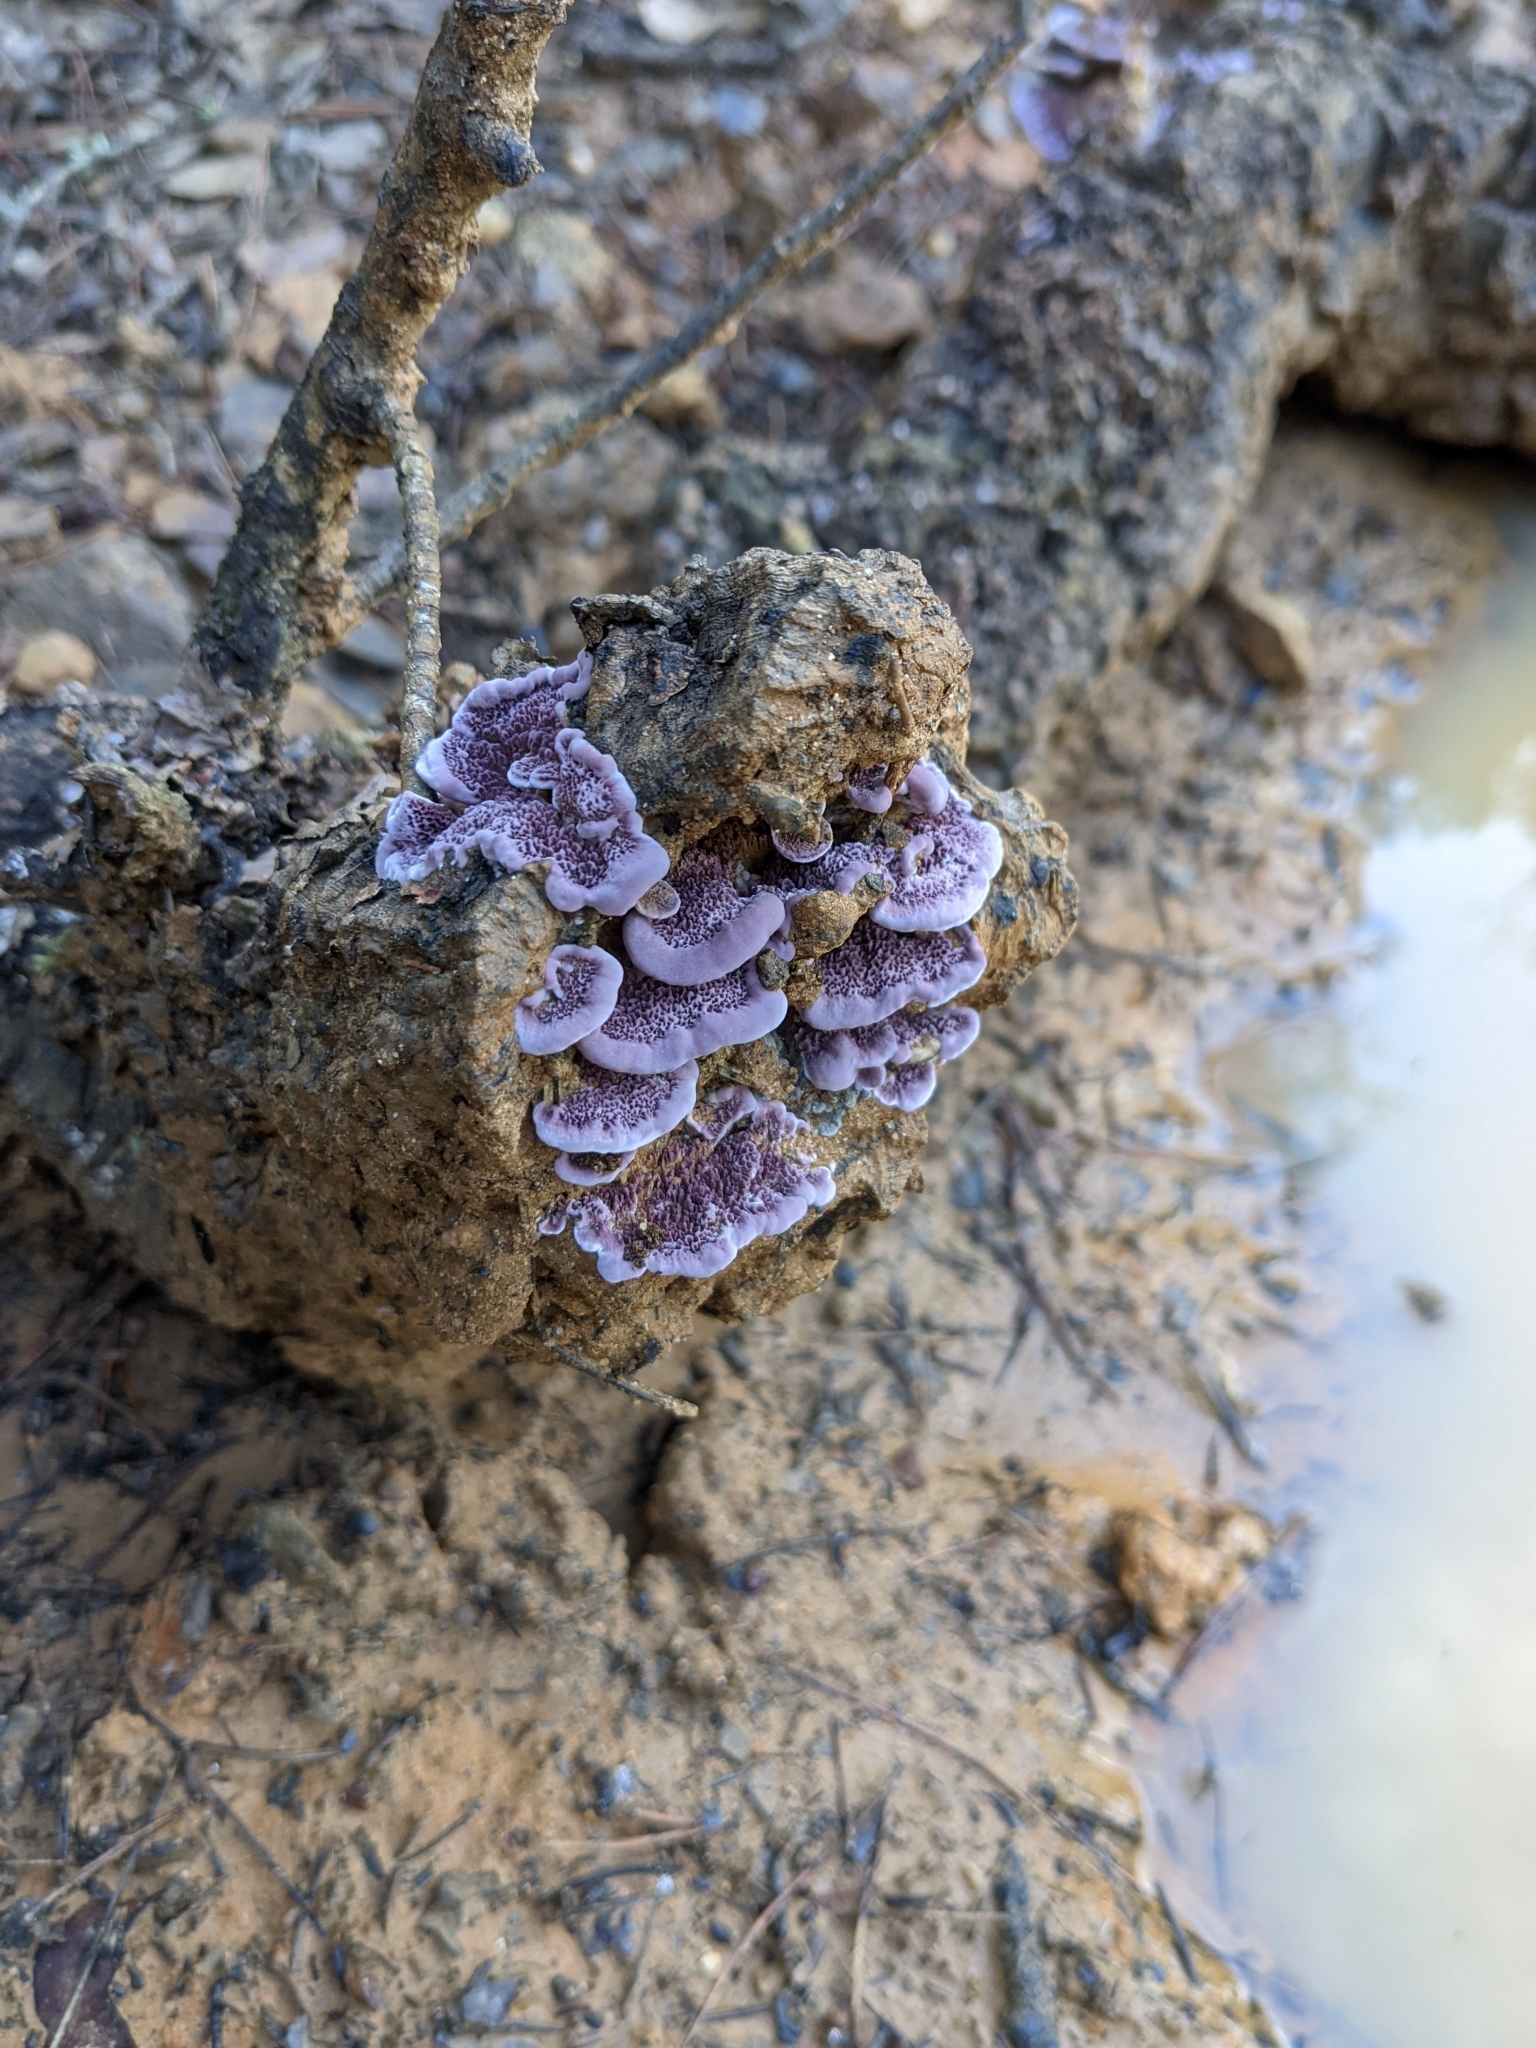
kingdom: Fungi
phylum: Basidiomycota
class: Agaricomycetes
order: Agaricales
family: Cyphellaceae
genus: Chondrostereum
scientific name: Chondrostereum purpureum
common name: Silver leaf disease
